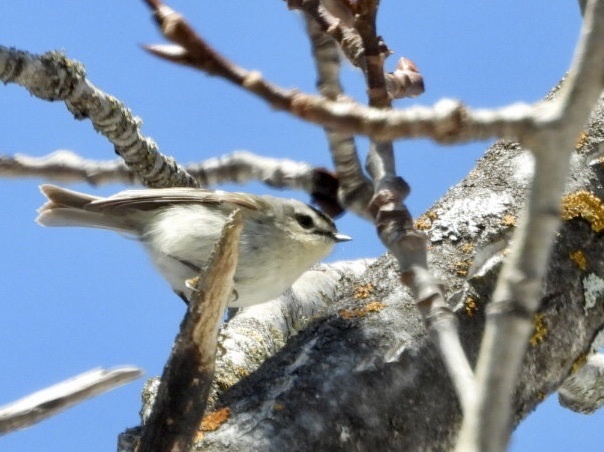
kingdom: Animalia
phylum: Chordata
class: Aves
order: Passeriformes
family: Regulidae
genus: Regulus
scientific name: Regulus satrapa
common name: Golden-crowned kinglet
